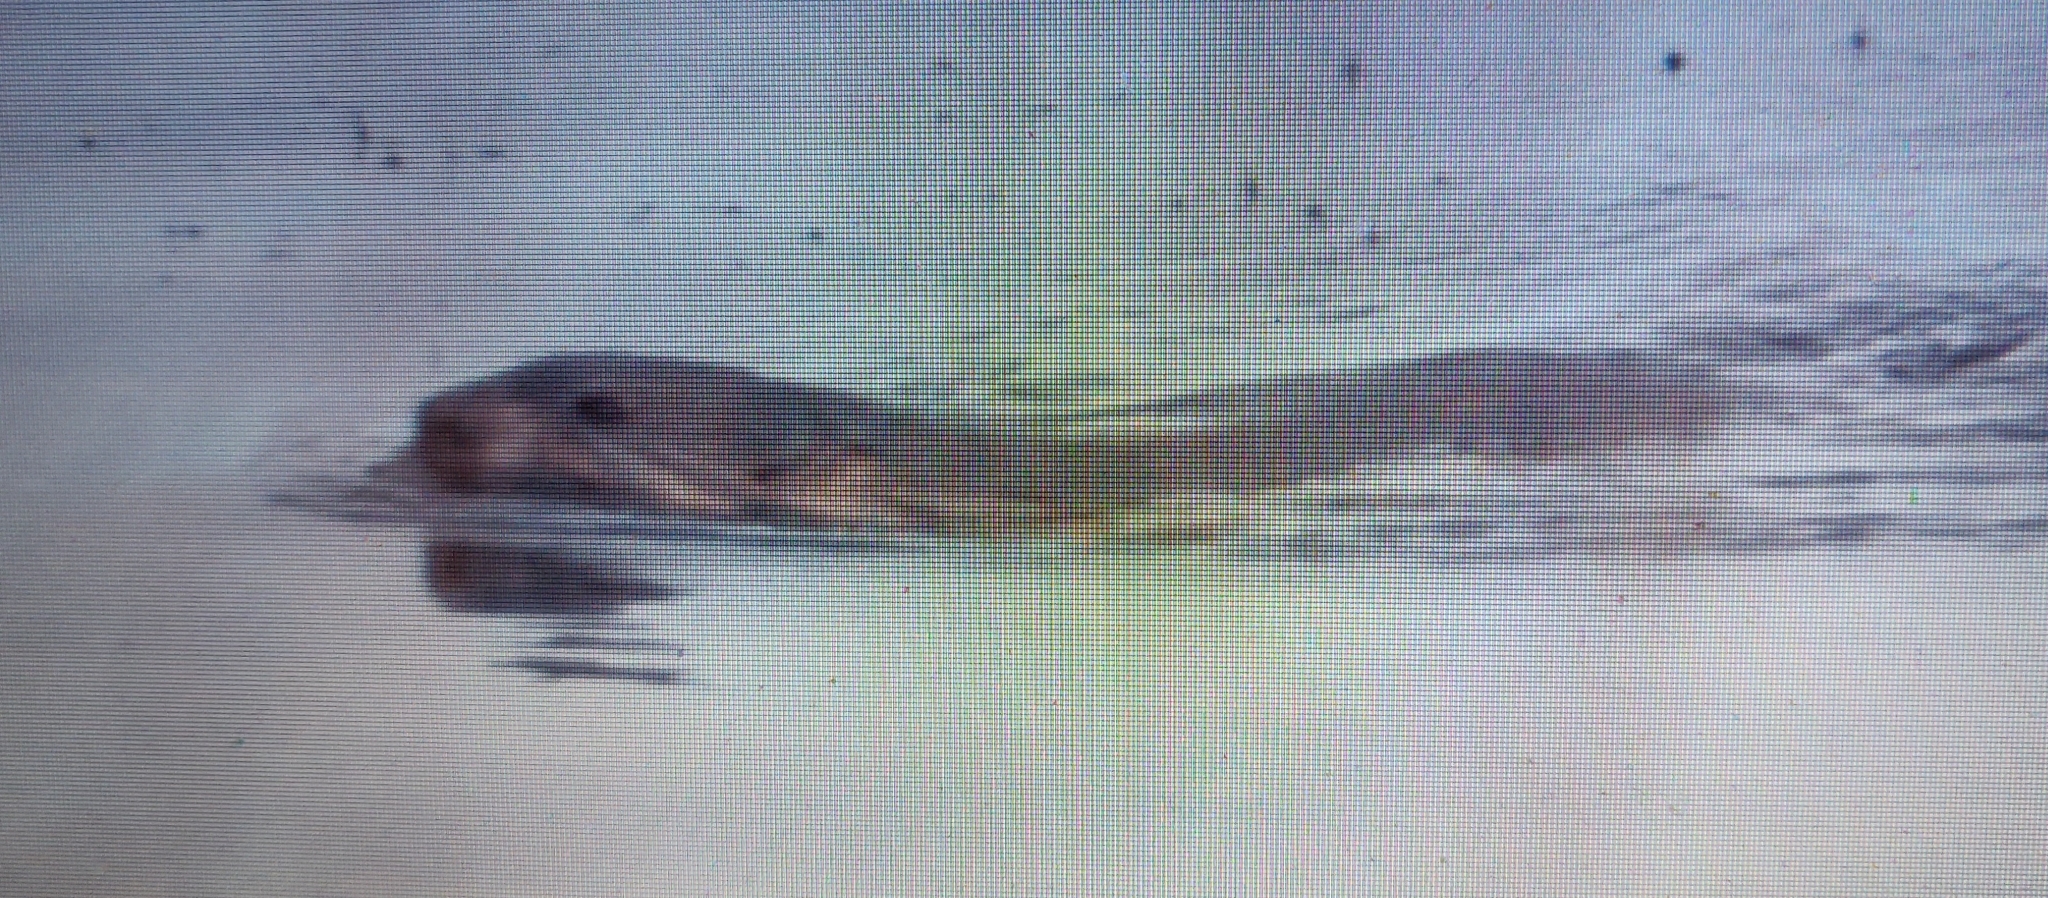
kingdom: Animalia
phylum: Chordata
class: Mammalia
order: Rodentia
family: Castoridae
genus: Castor
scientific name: Castor canadensis
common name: American beaver
